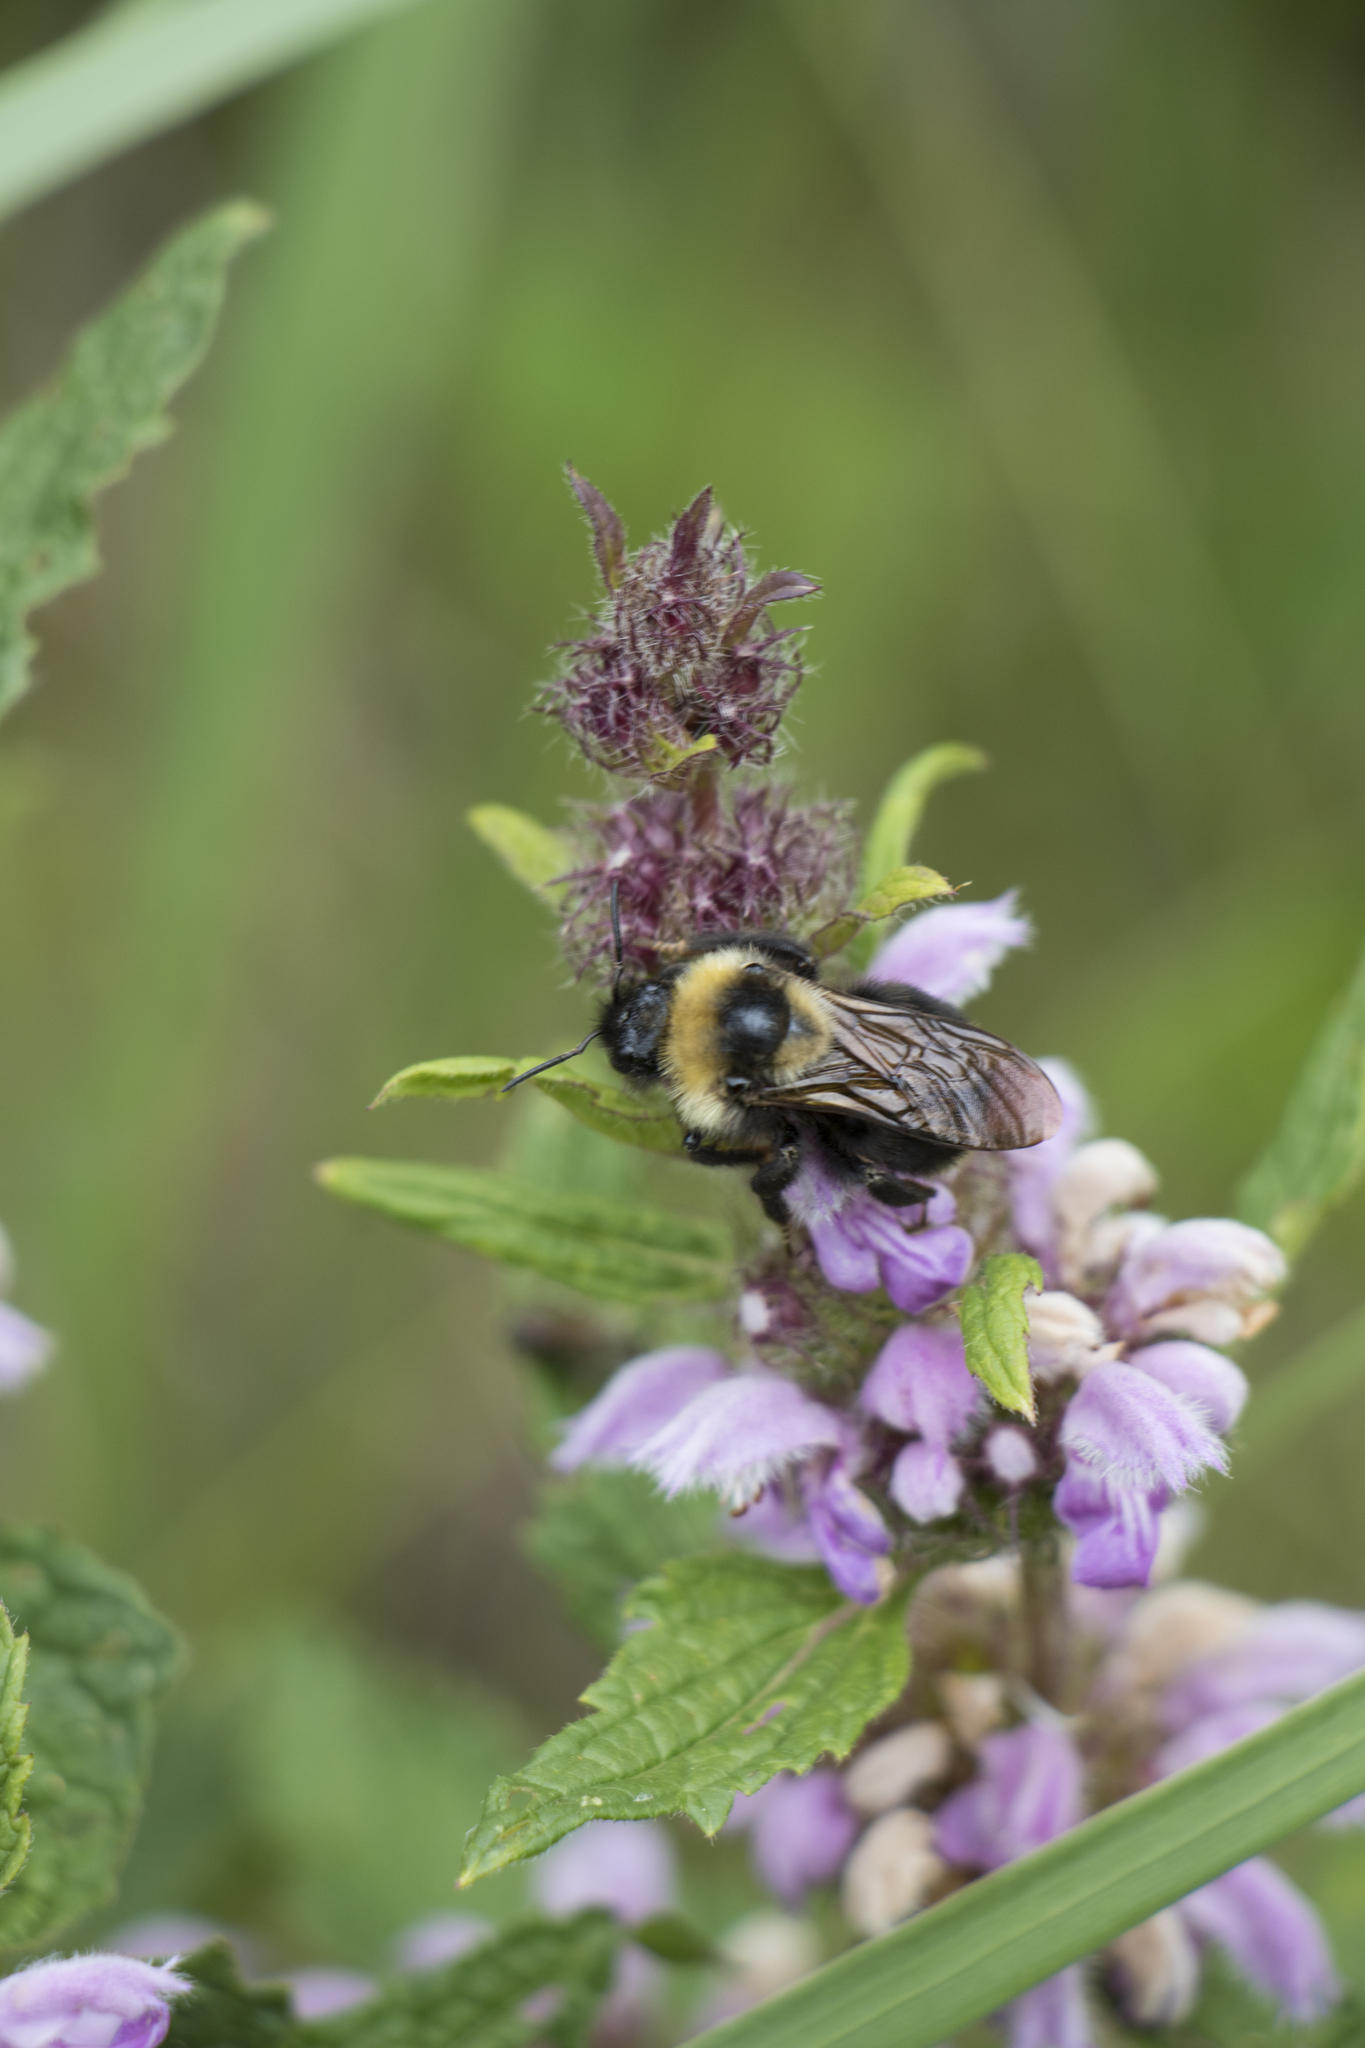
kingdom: Animalia
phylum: Arthropoda
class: Insecta
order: Hymenoptera
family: Apidae
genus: Bombus
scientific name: Bombus campestris
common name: Field cuckoo-bee
